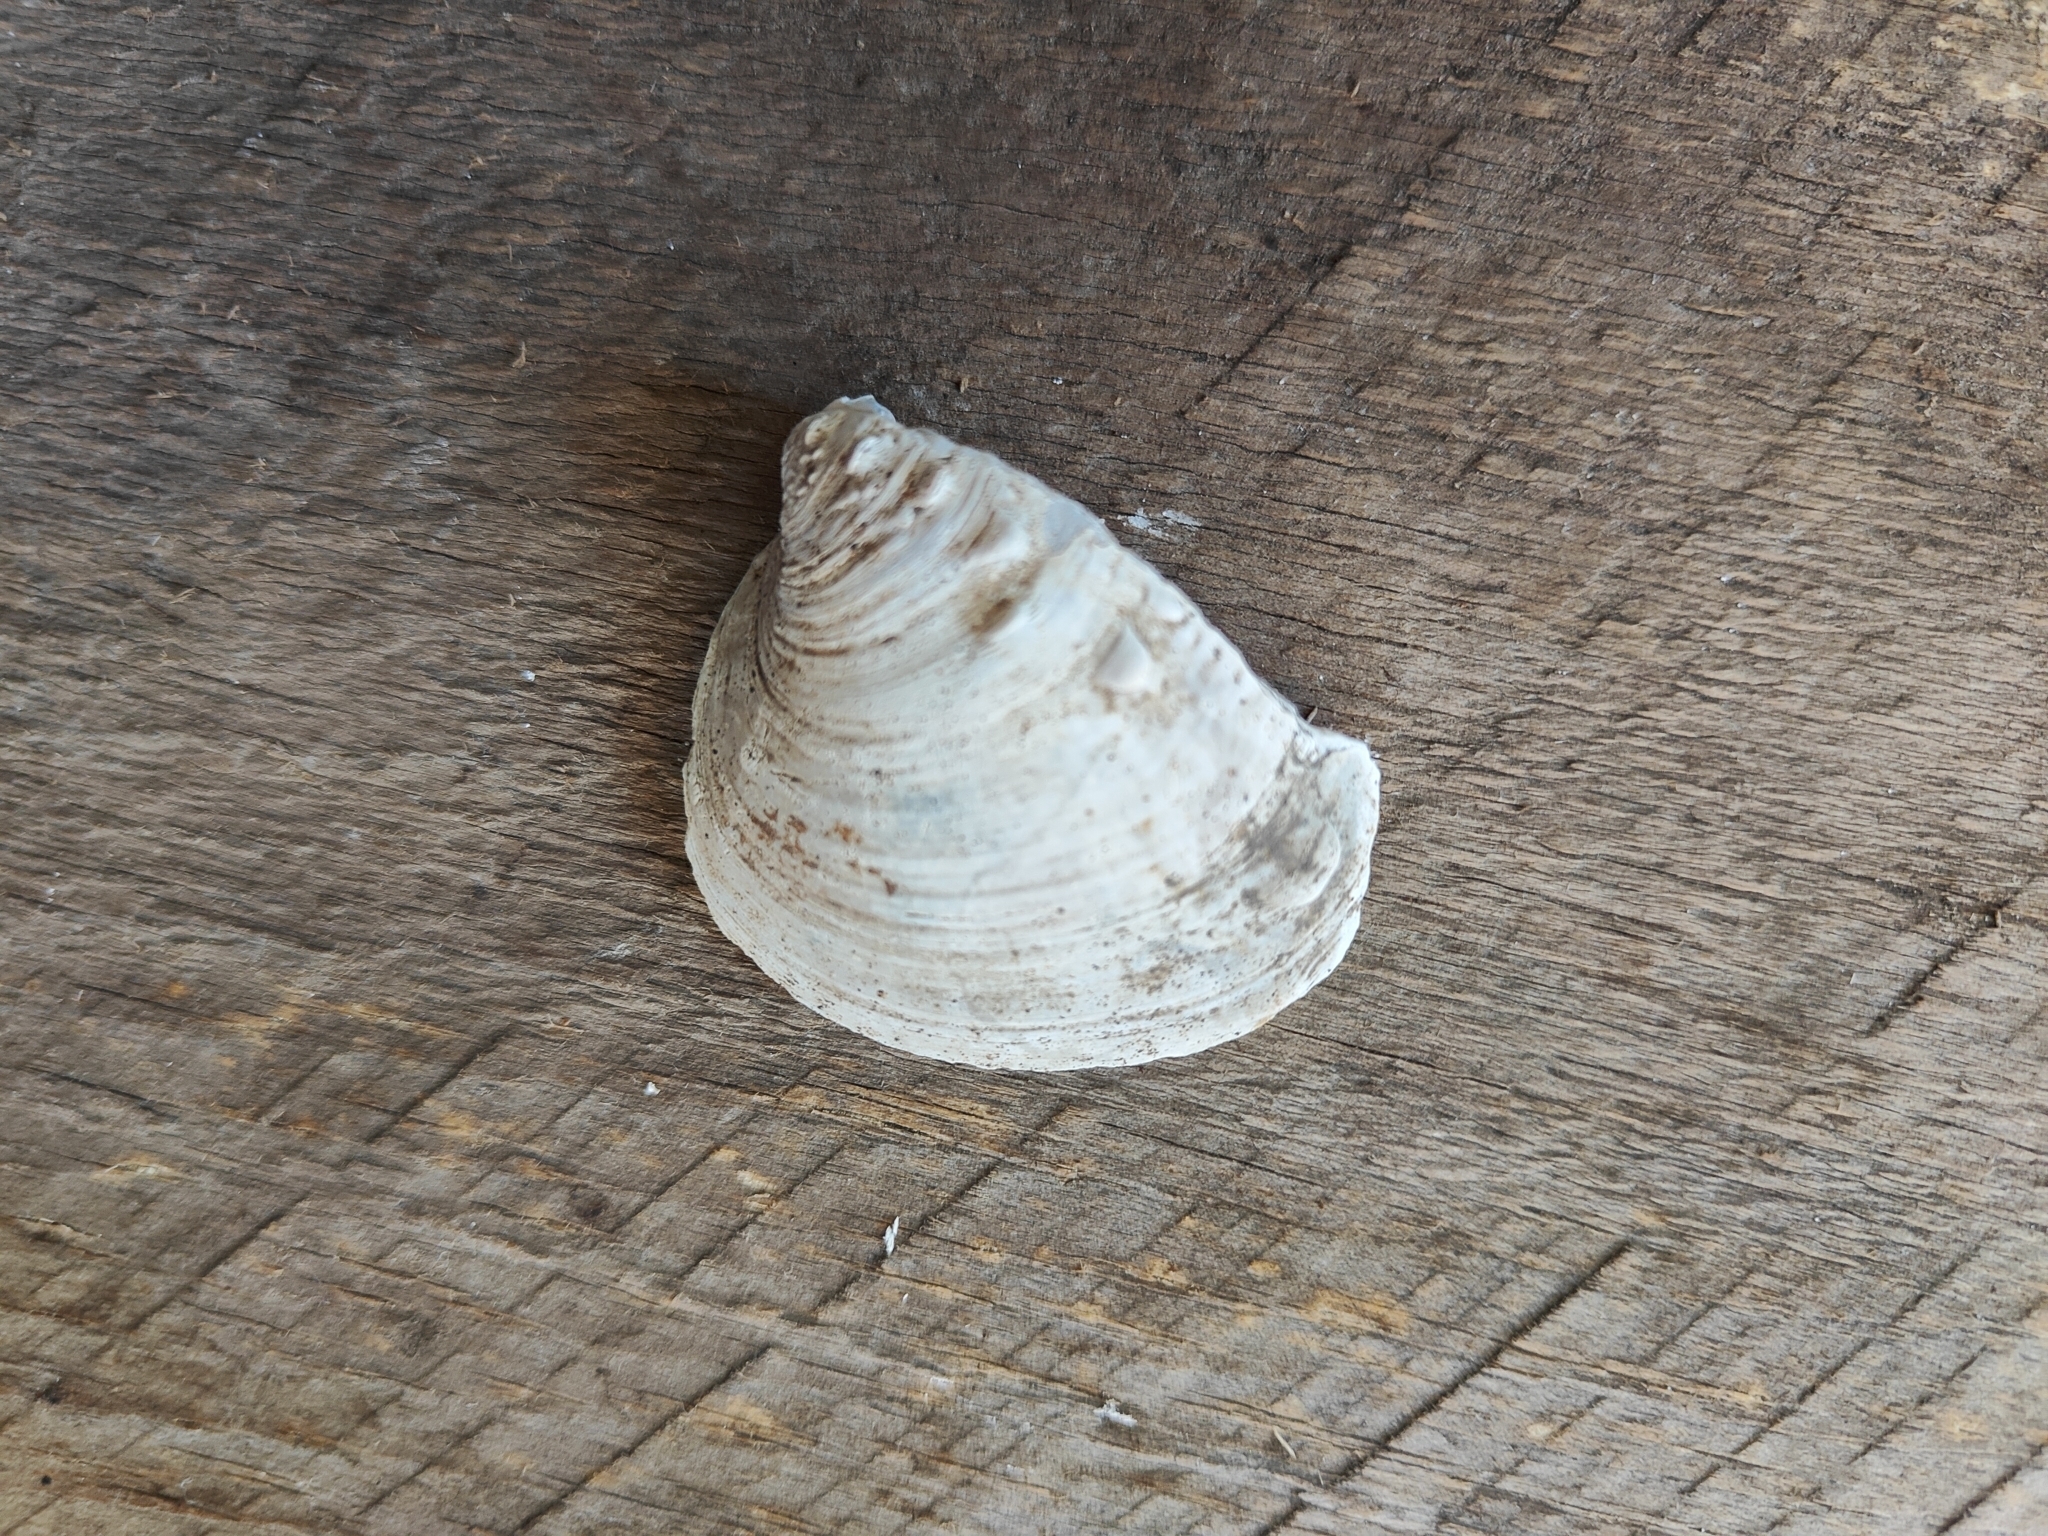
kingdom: Animalia
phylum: Mollusca
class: Bivalvia
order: Unionida
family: Unionidae
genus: Quadrula
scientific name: Quadrula quadrula
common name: Mapleleaf
